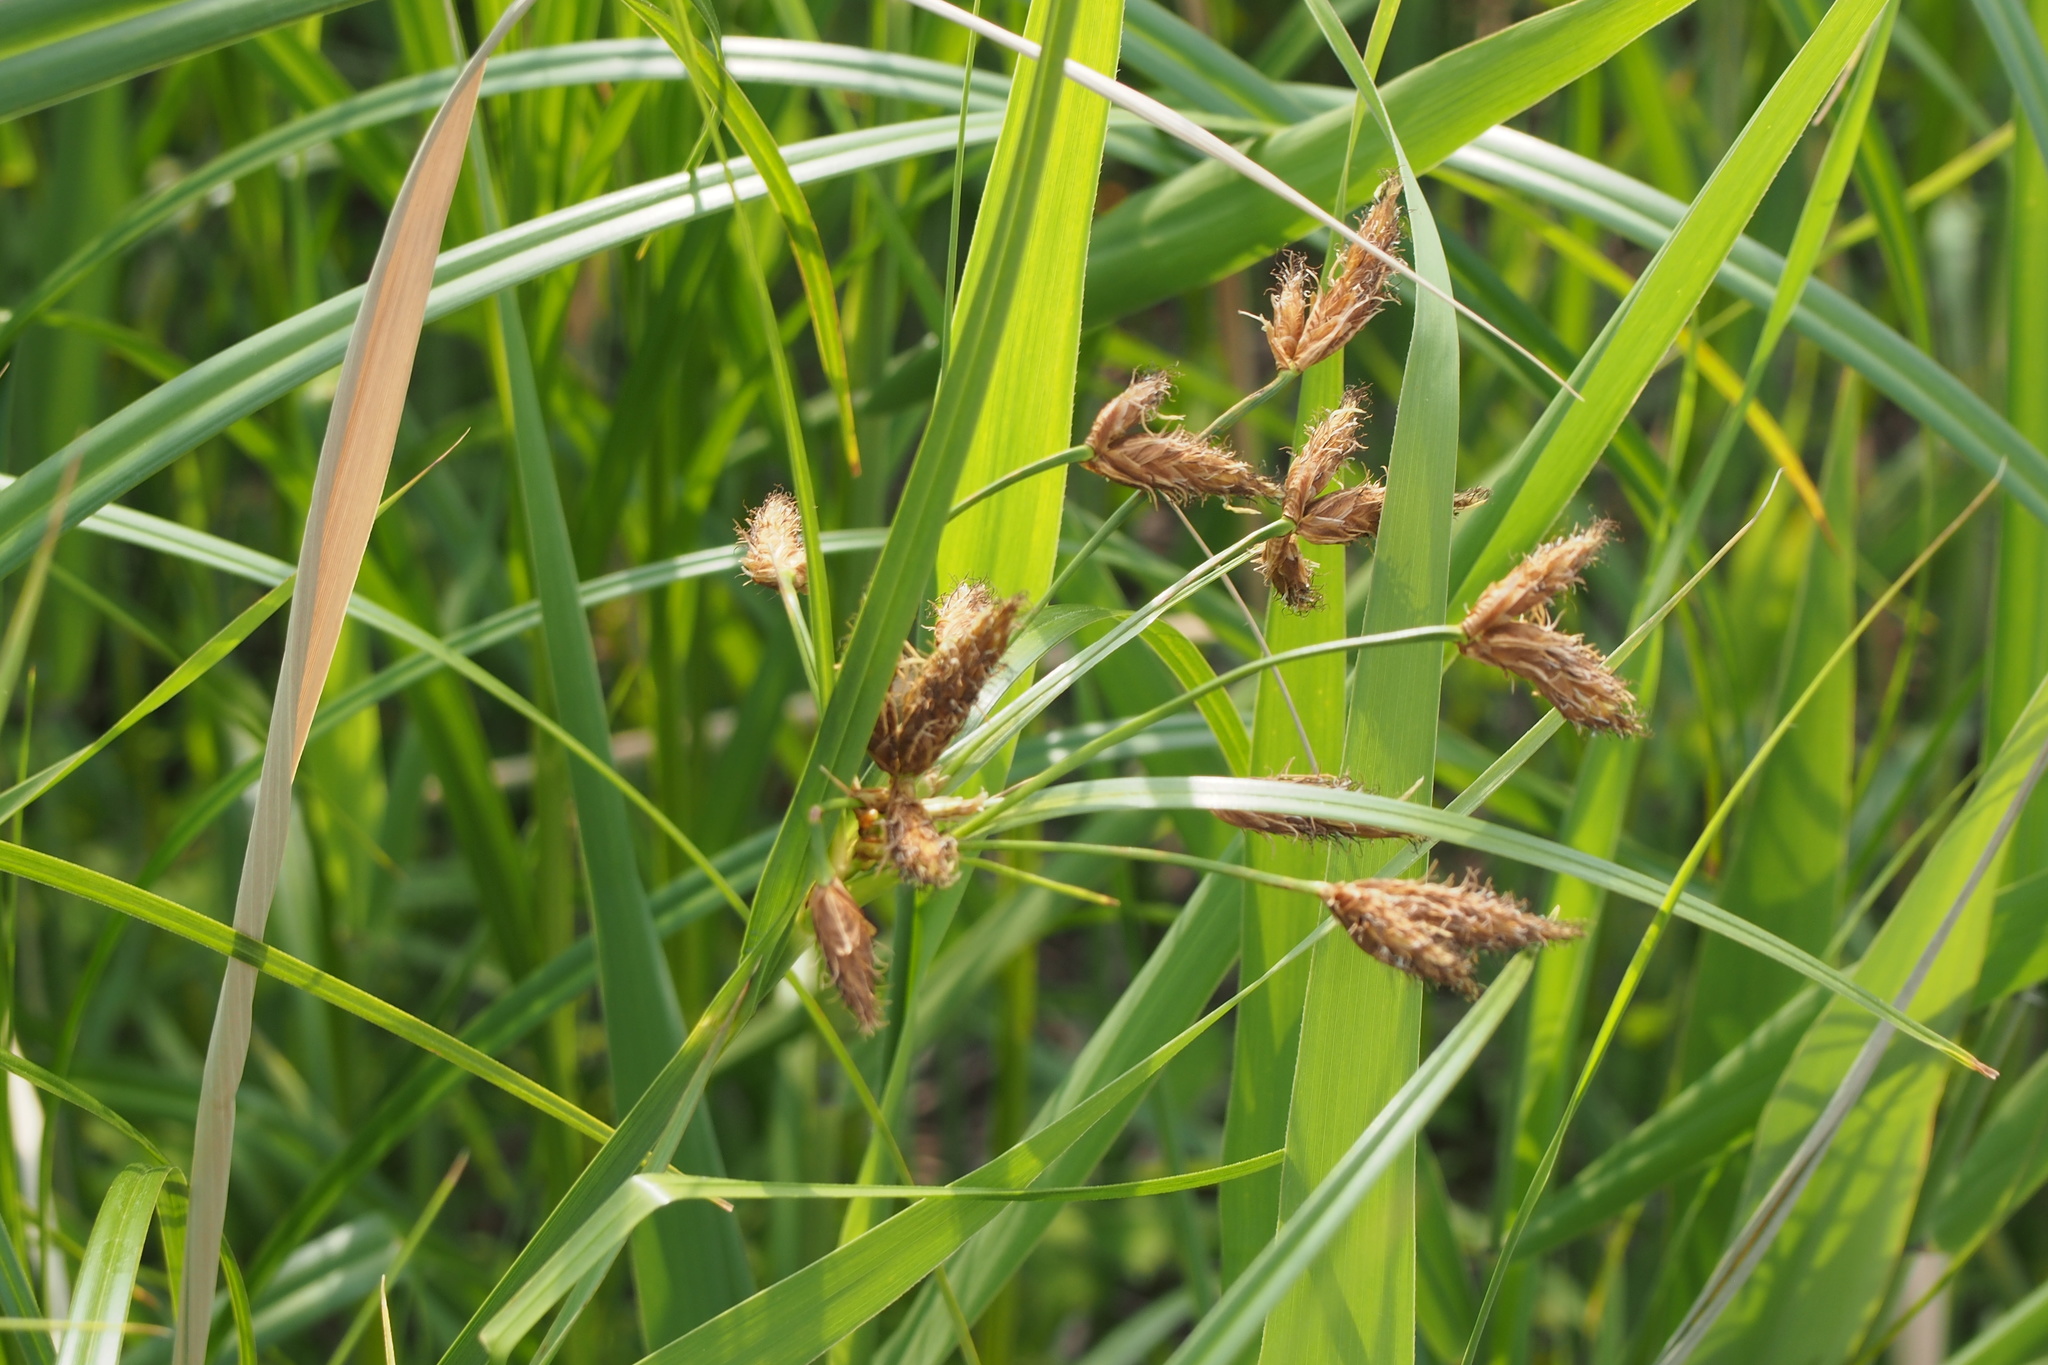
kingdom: Plantae
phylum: Tracheophyta
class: Liliopsida
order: Poales
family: Cyperaceae
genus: Bolboschoenus
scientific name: Bolboschoenus fluviatilis
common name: River bulrush
